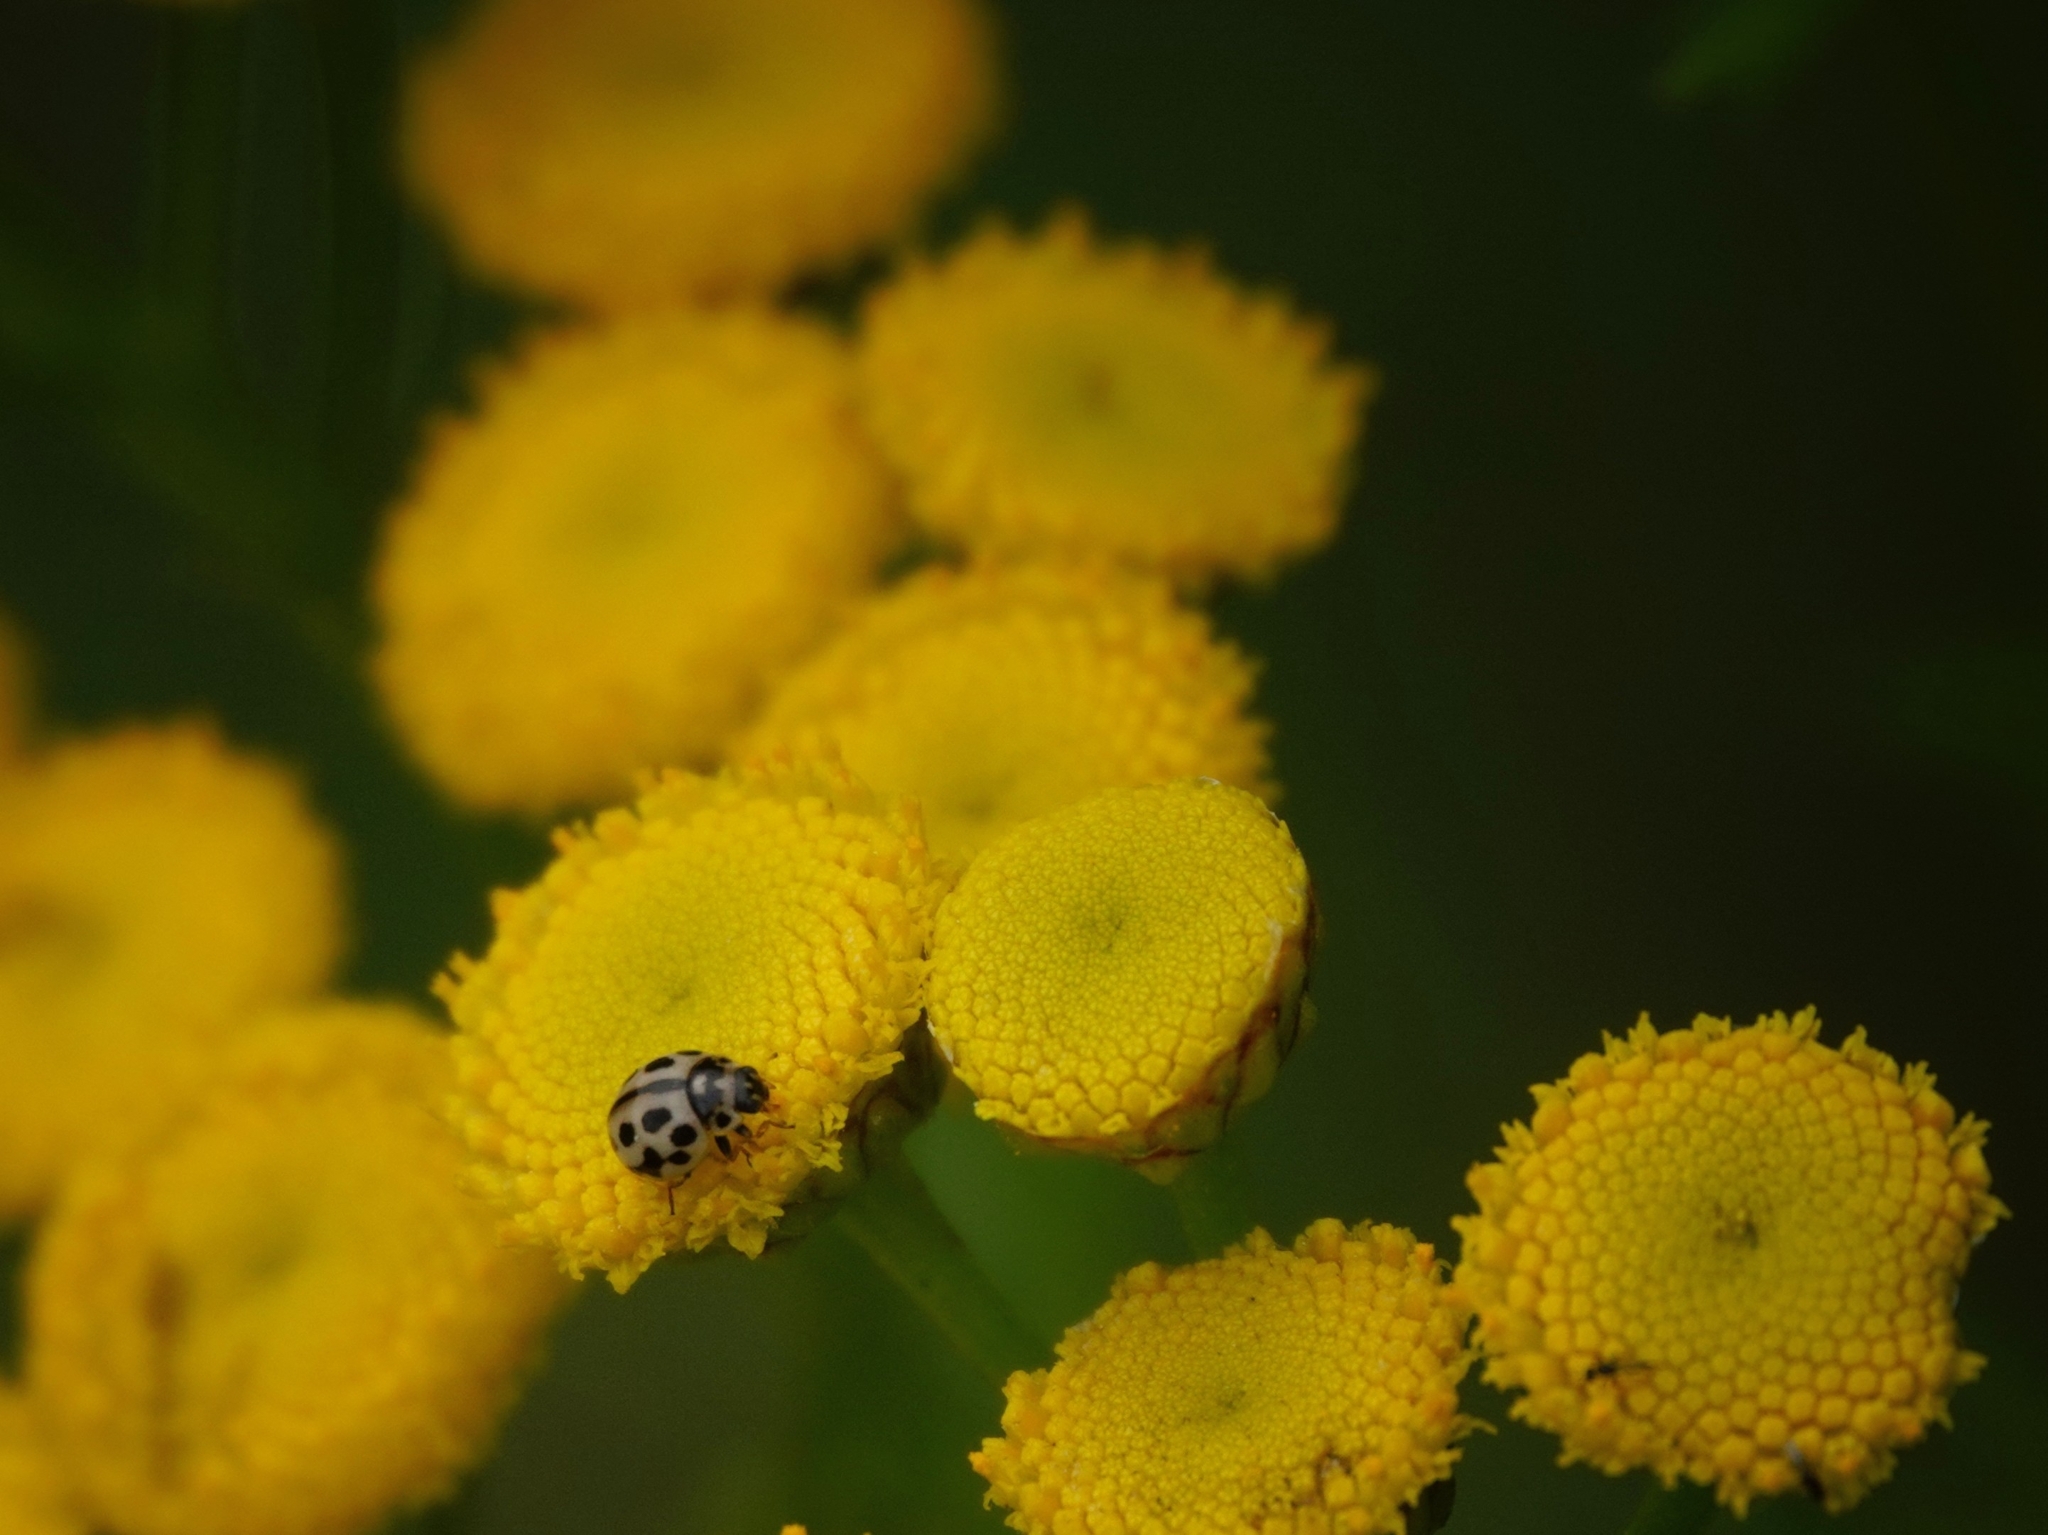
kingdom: Animalia
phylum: Arthropoda
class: Insecta
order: Coleoptera
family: Coccinellidae
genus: Tytthaspis
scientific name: Tytthaspis sedecimpunctata
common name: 16-spot ladybird
